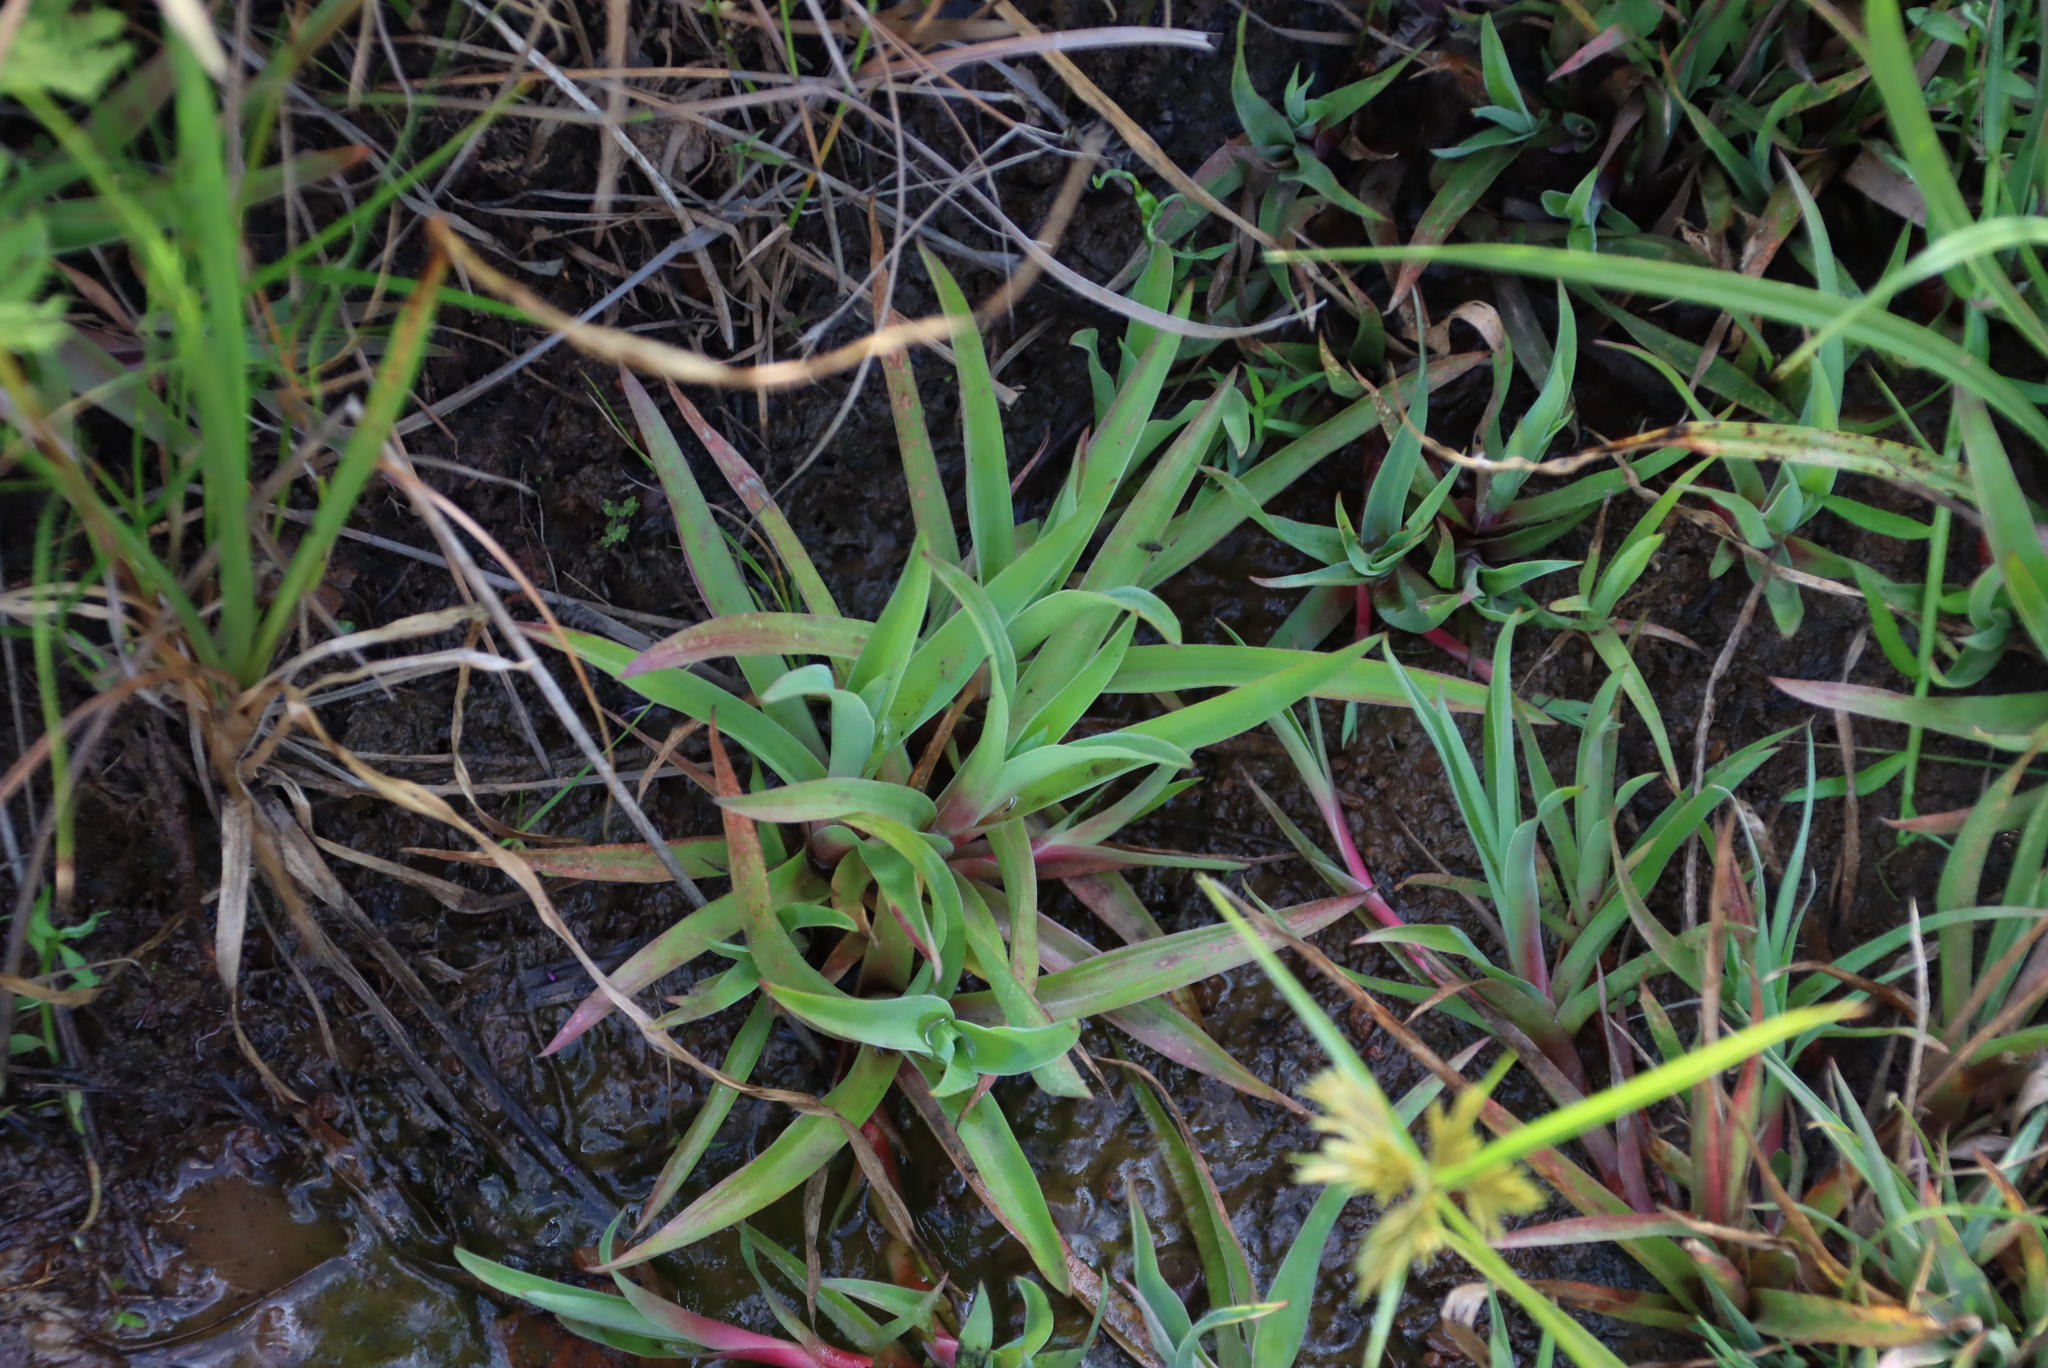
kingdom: Plantae
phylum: Tracheophyta
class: Liliopsida
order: Poales
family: Juncaceae
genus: Juncus
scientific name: Juncus lomatophyllus
